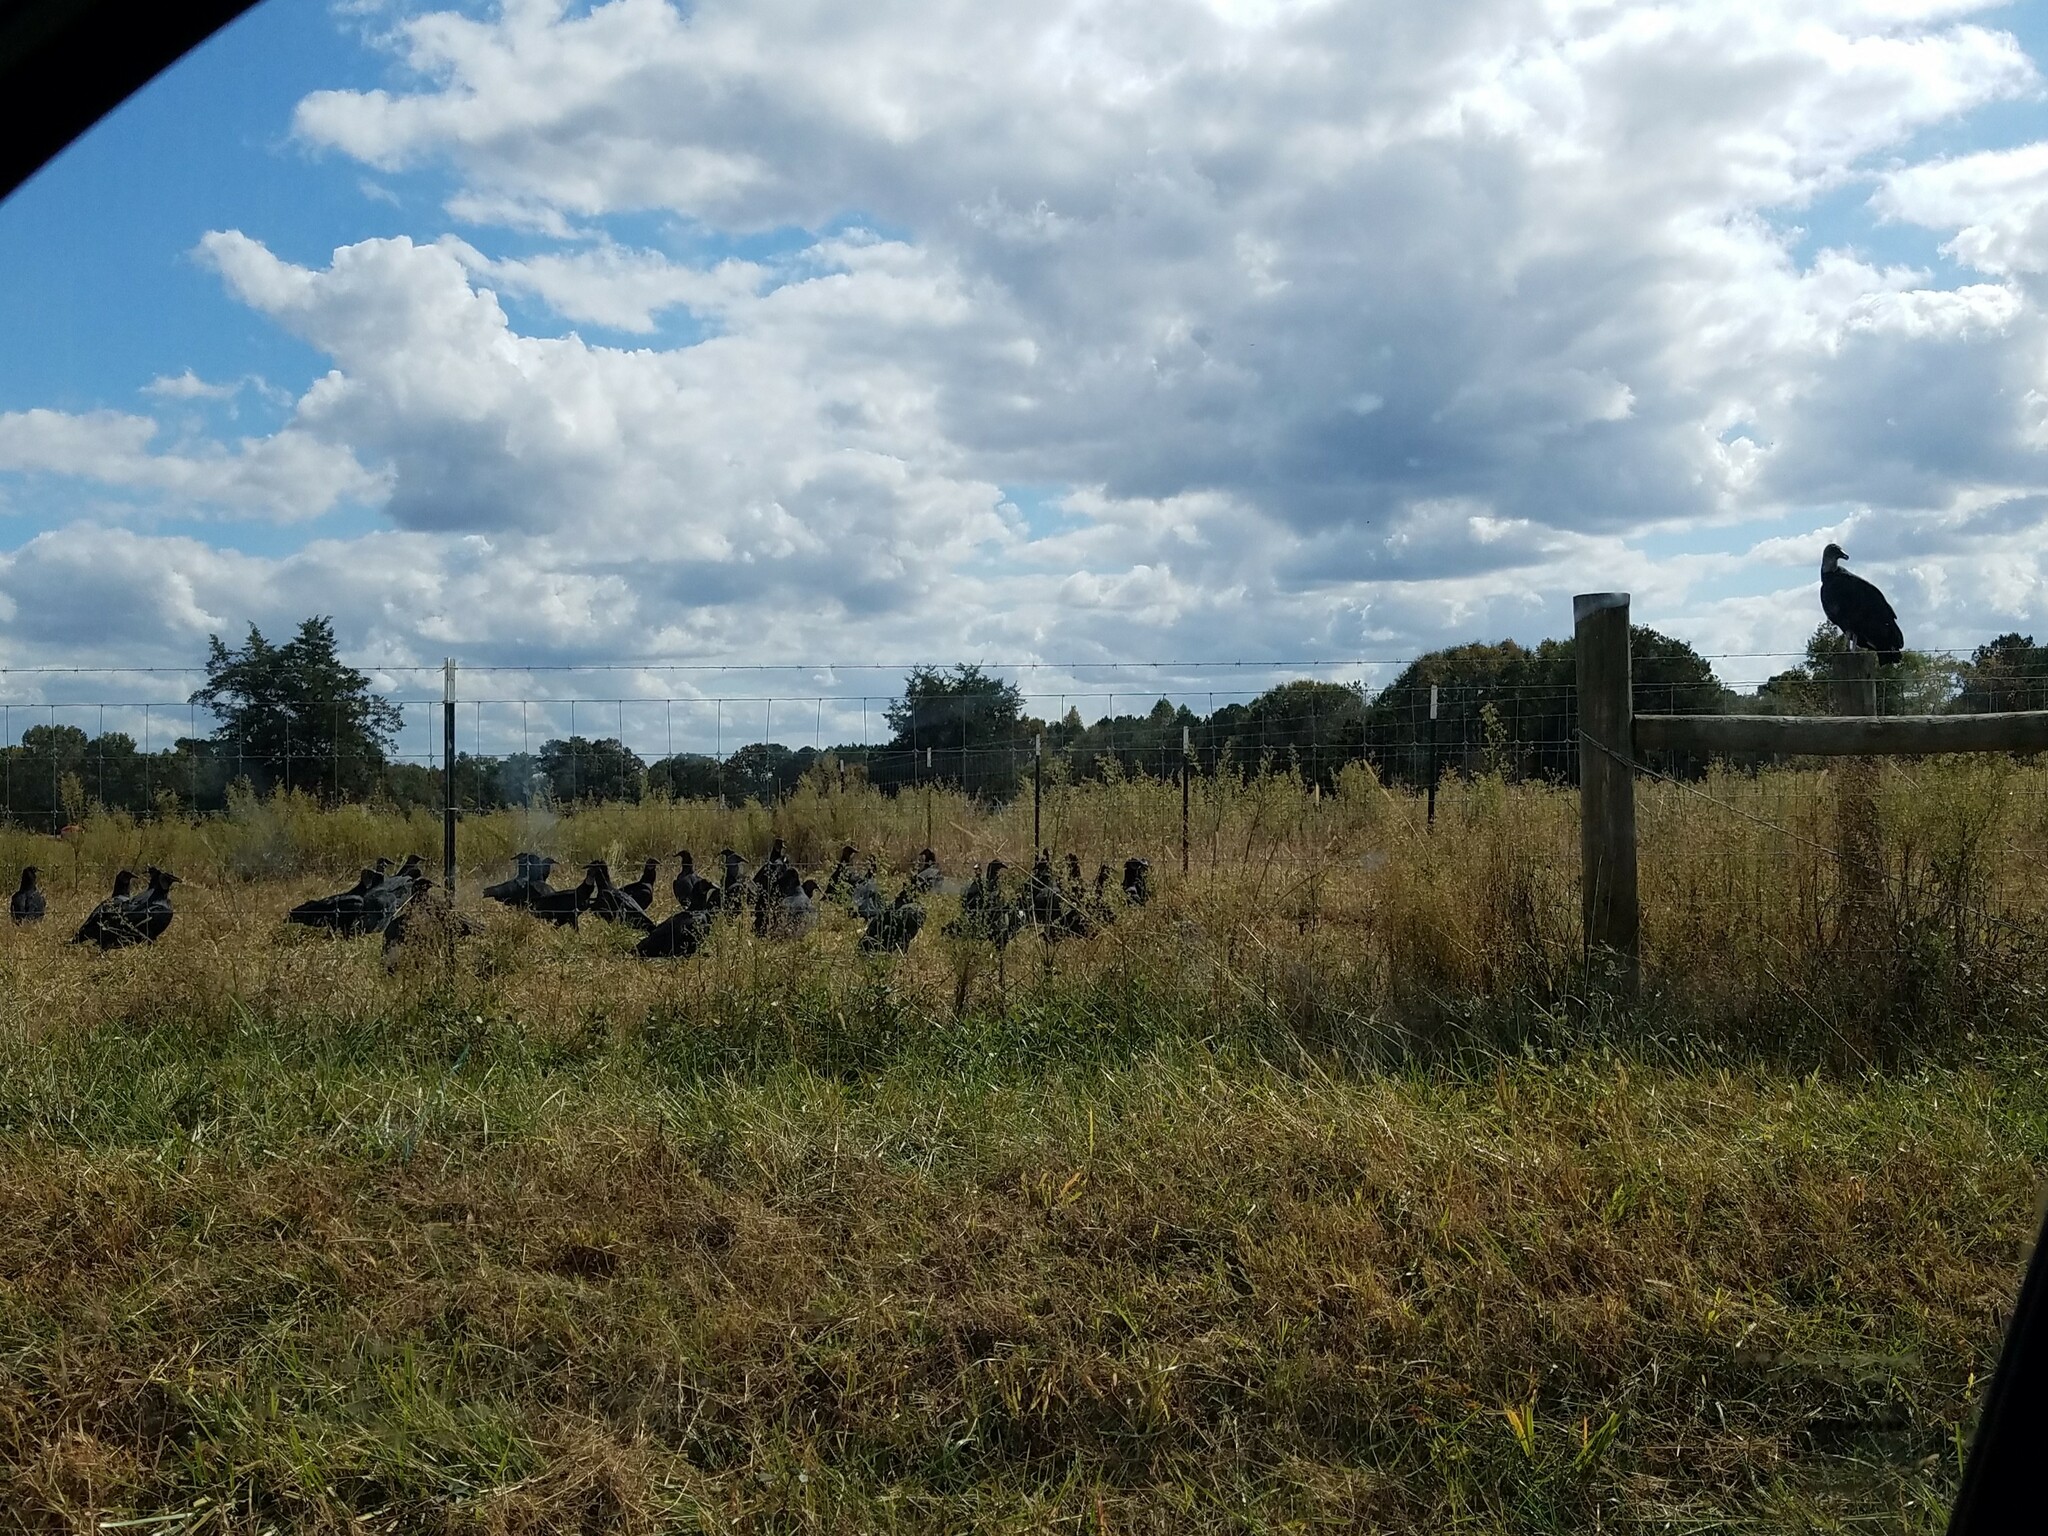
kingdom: Animalia
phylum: Chordata
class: Aves
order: Accipitriformes
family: Cathartidae
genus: Coragyps
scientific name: Coragyps atratus
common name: Black vulture
